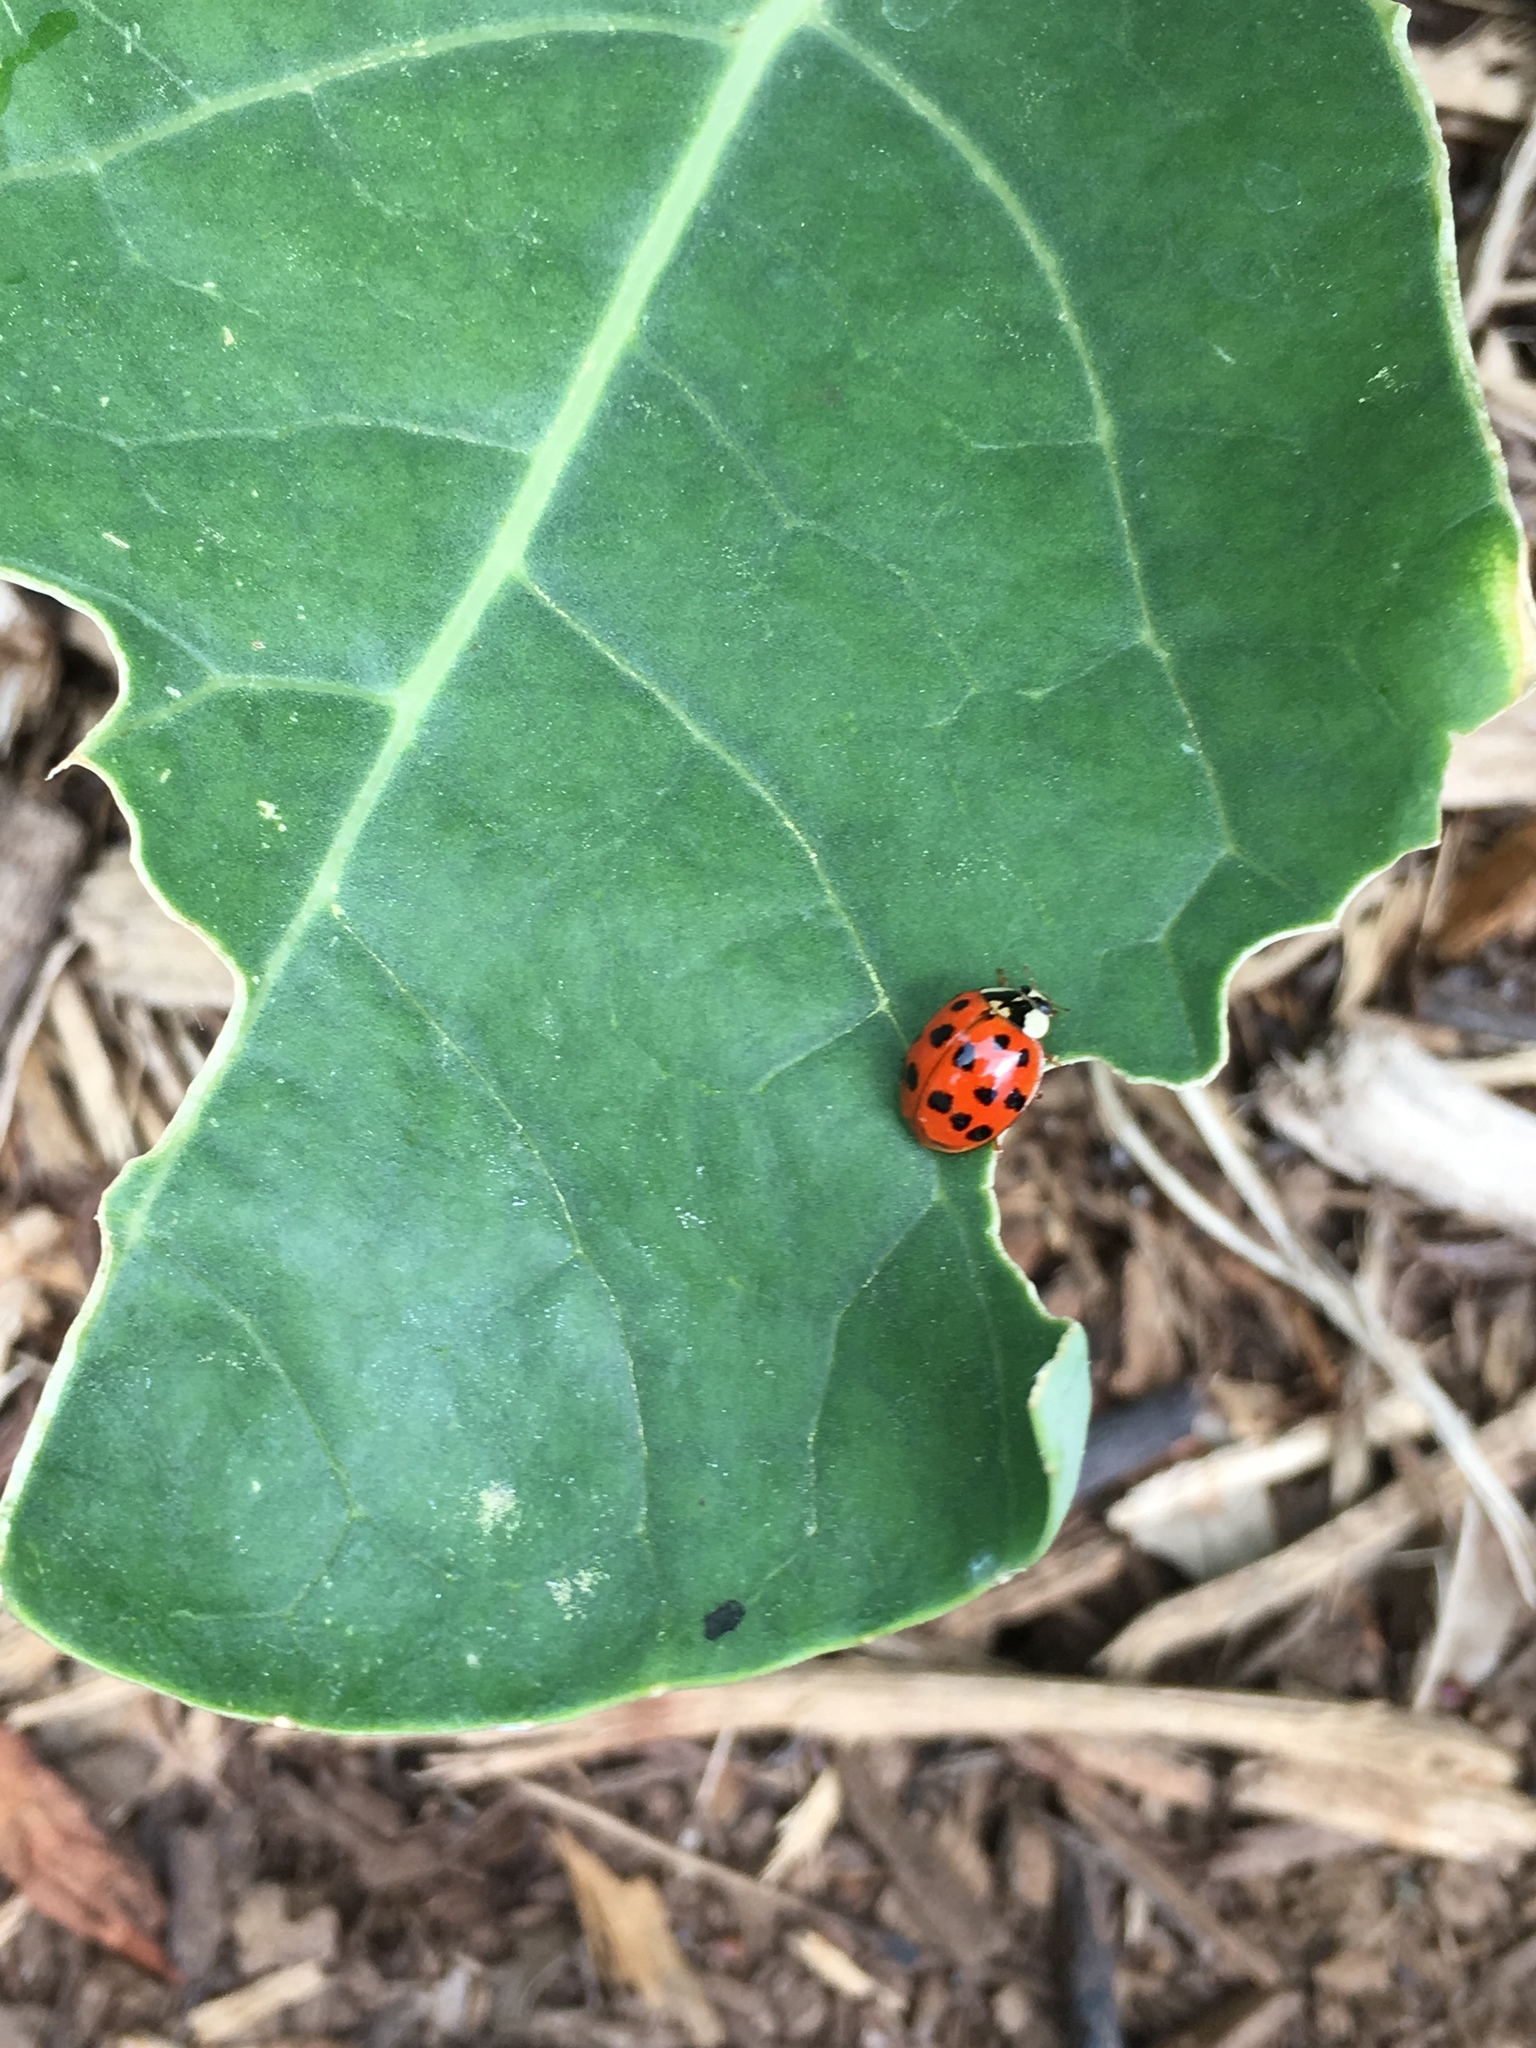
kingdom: Animalia
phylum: Arthropoda
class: Insecta
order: Coleoptera
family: Coccinellidae
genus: Harmonia
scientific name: Harmonia axyridis
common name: Harlequin ladybird
